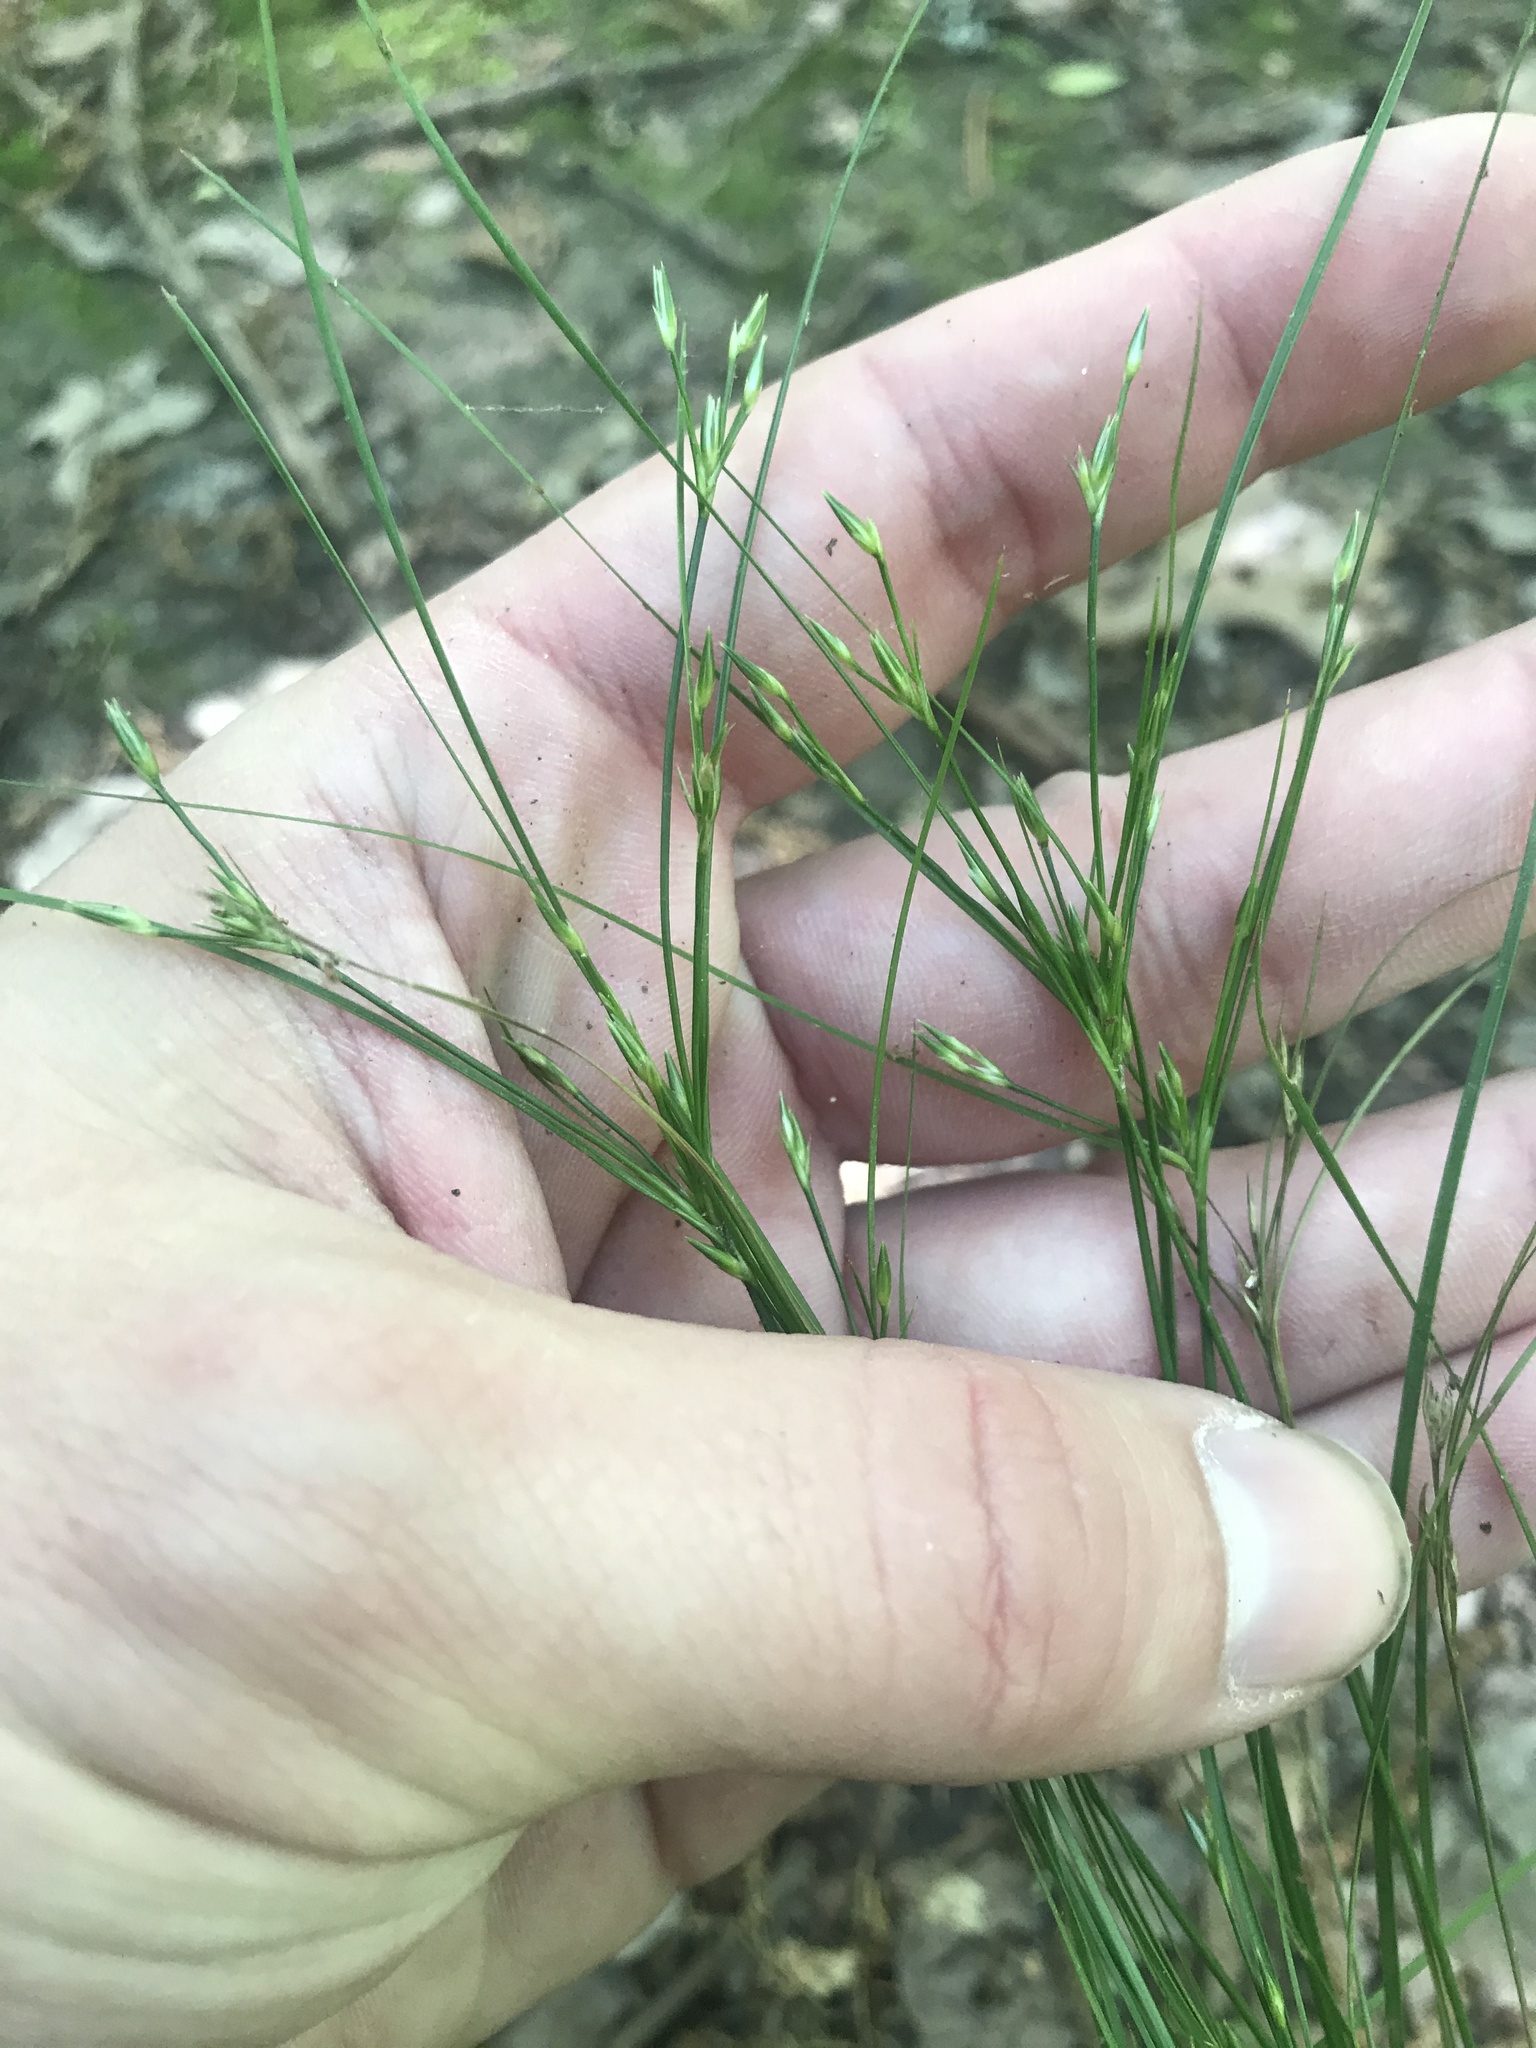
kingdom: Plantae
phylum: Tracheophyta
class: Liliopsida
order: Poales
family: Juncaceae
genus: Juncus
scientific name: Juncus diffusissimus
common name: Slimpod rush
